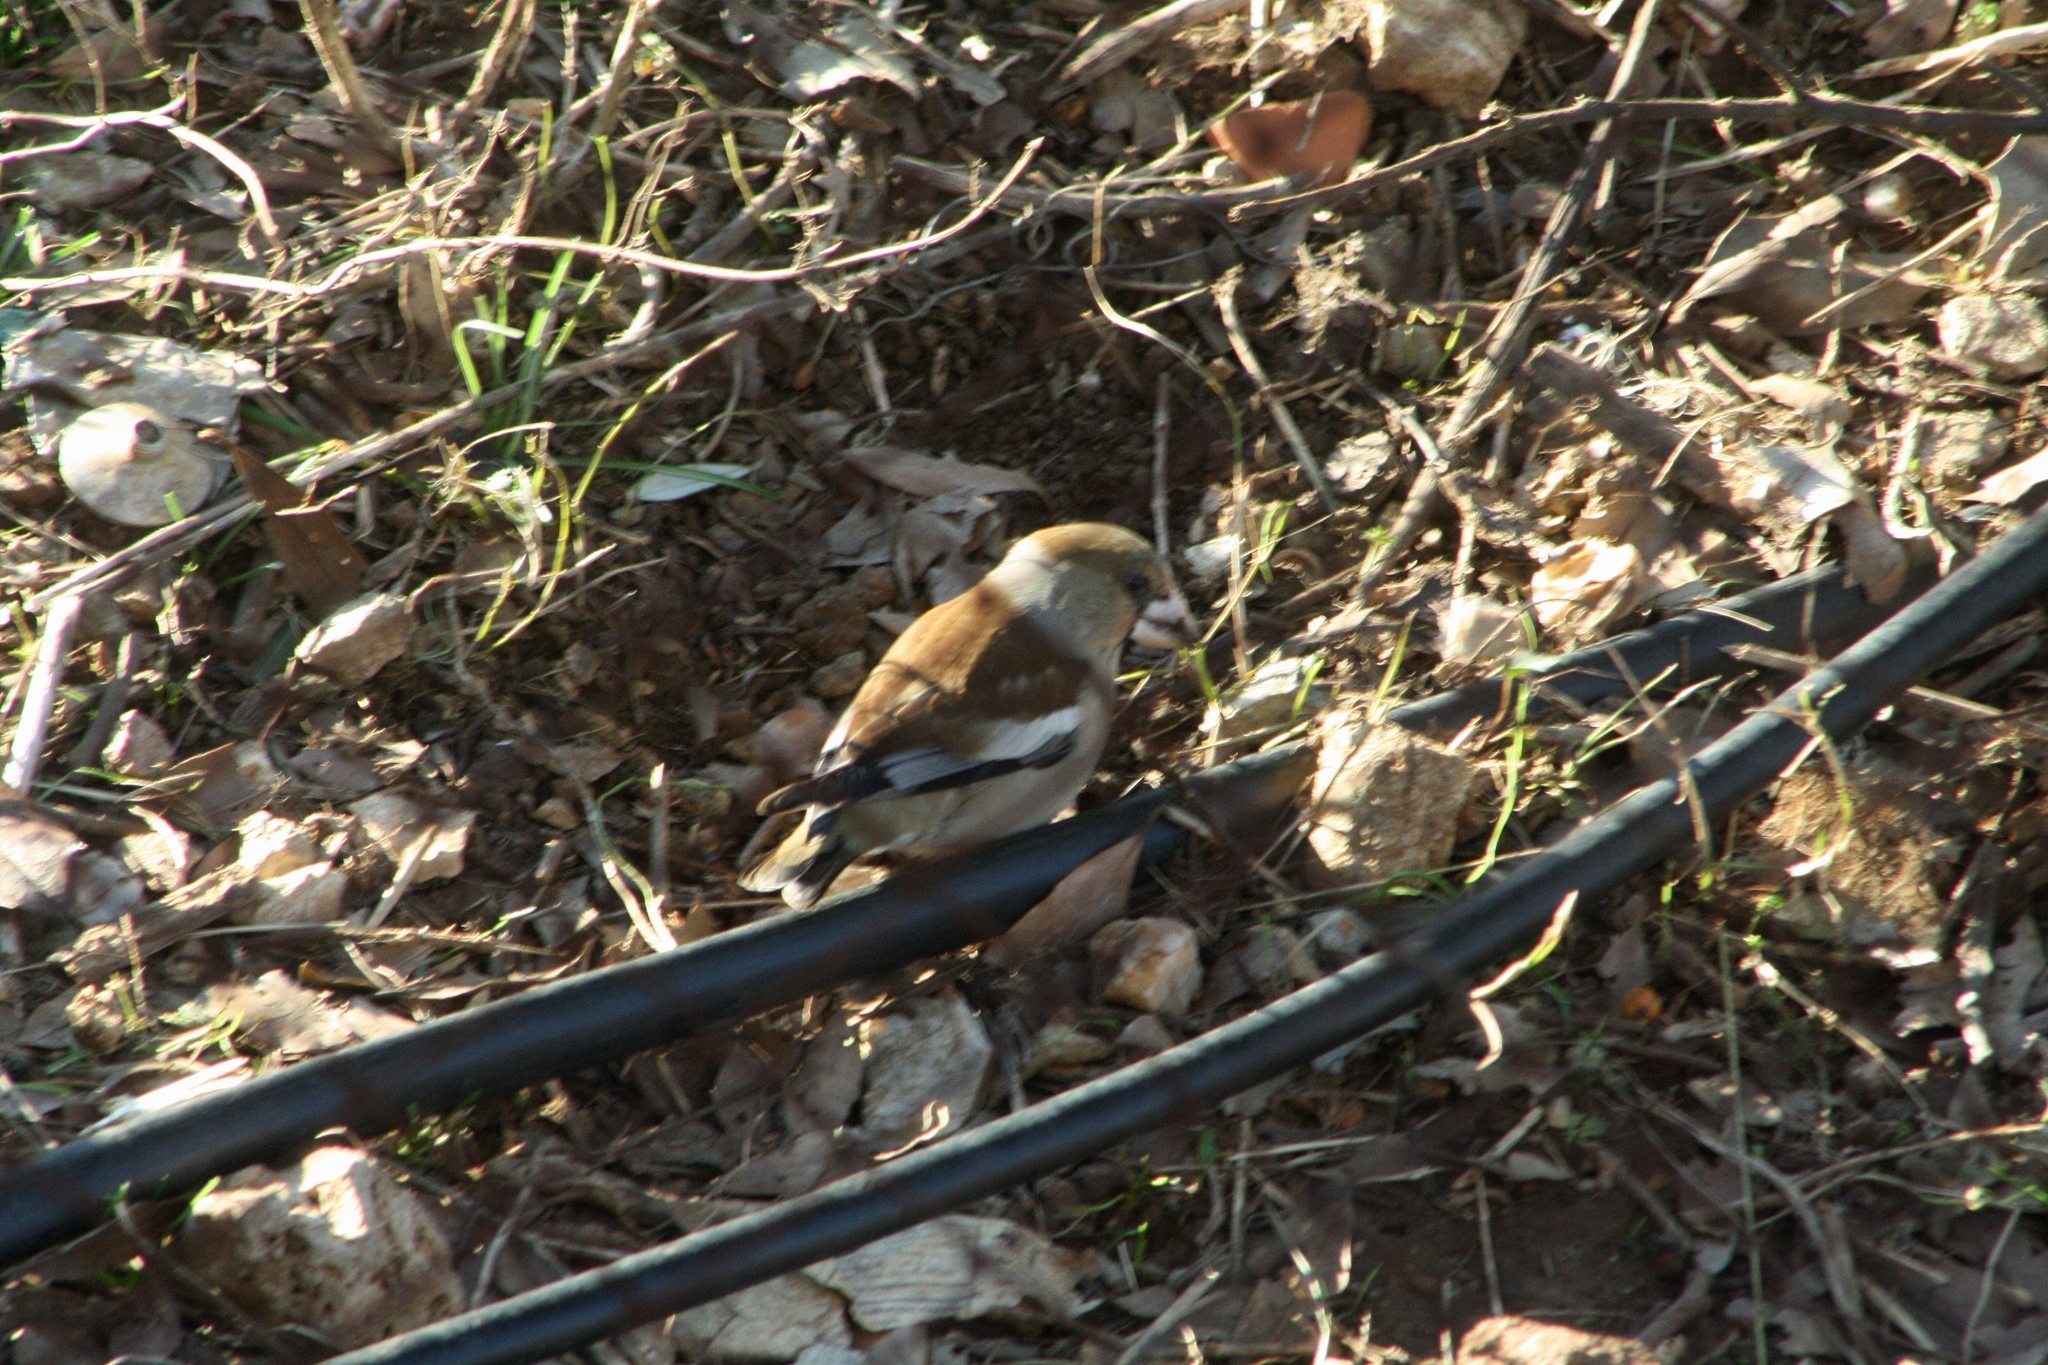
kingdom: Animalia
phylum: Chordata
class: Aves
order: Passeriformes
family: Fringillidae
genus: Coccothraustes
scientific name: Coccothraustes coccothraustes
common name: Hawfinch
